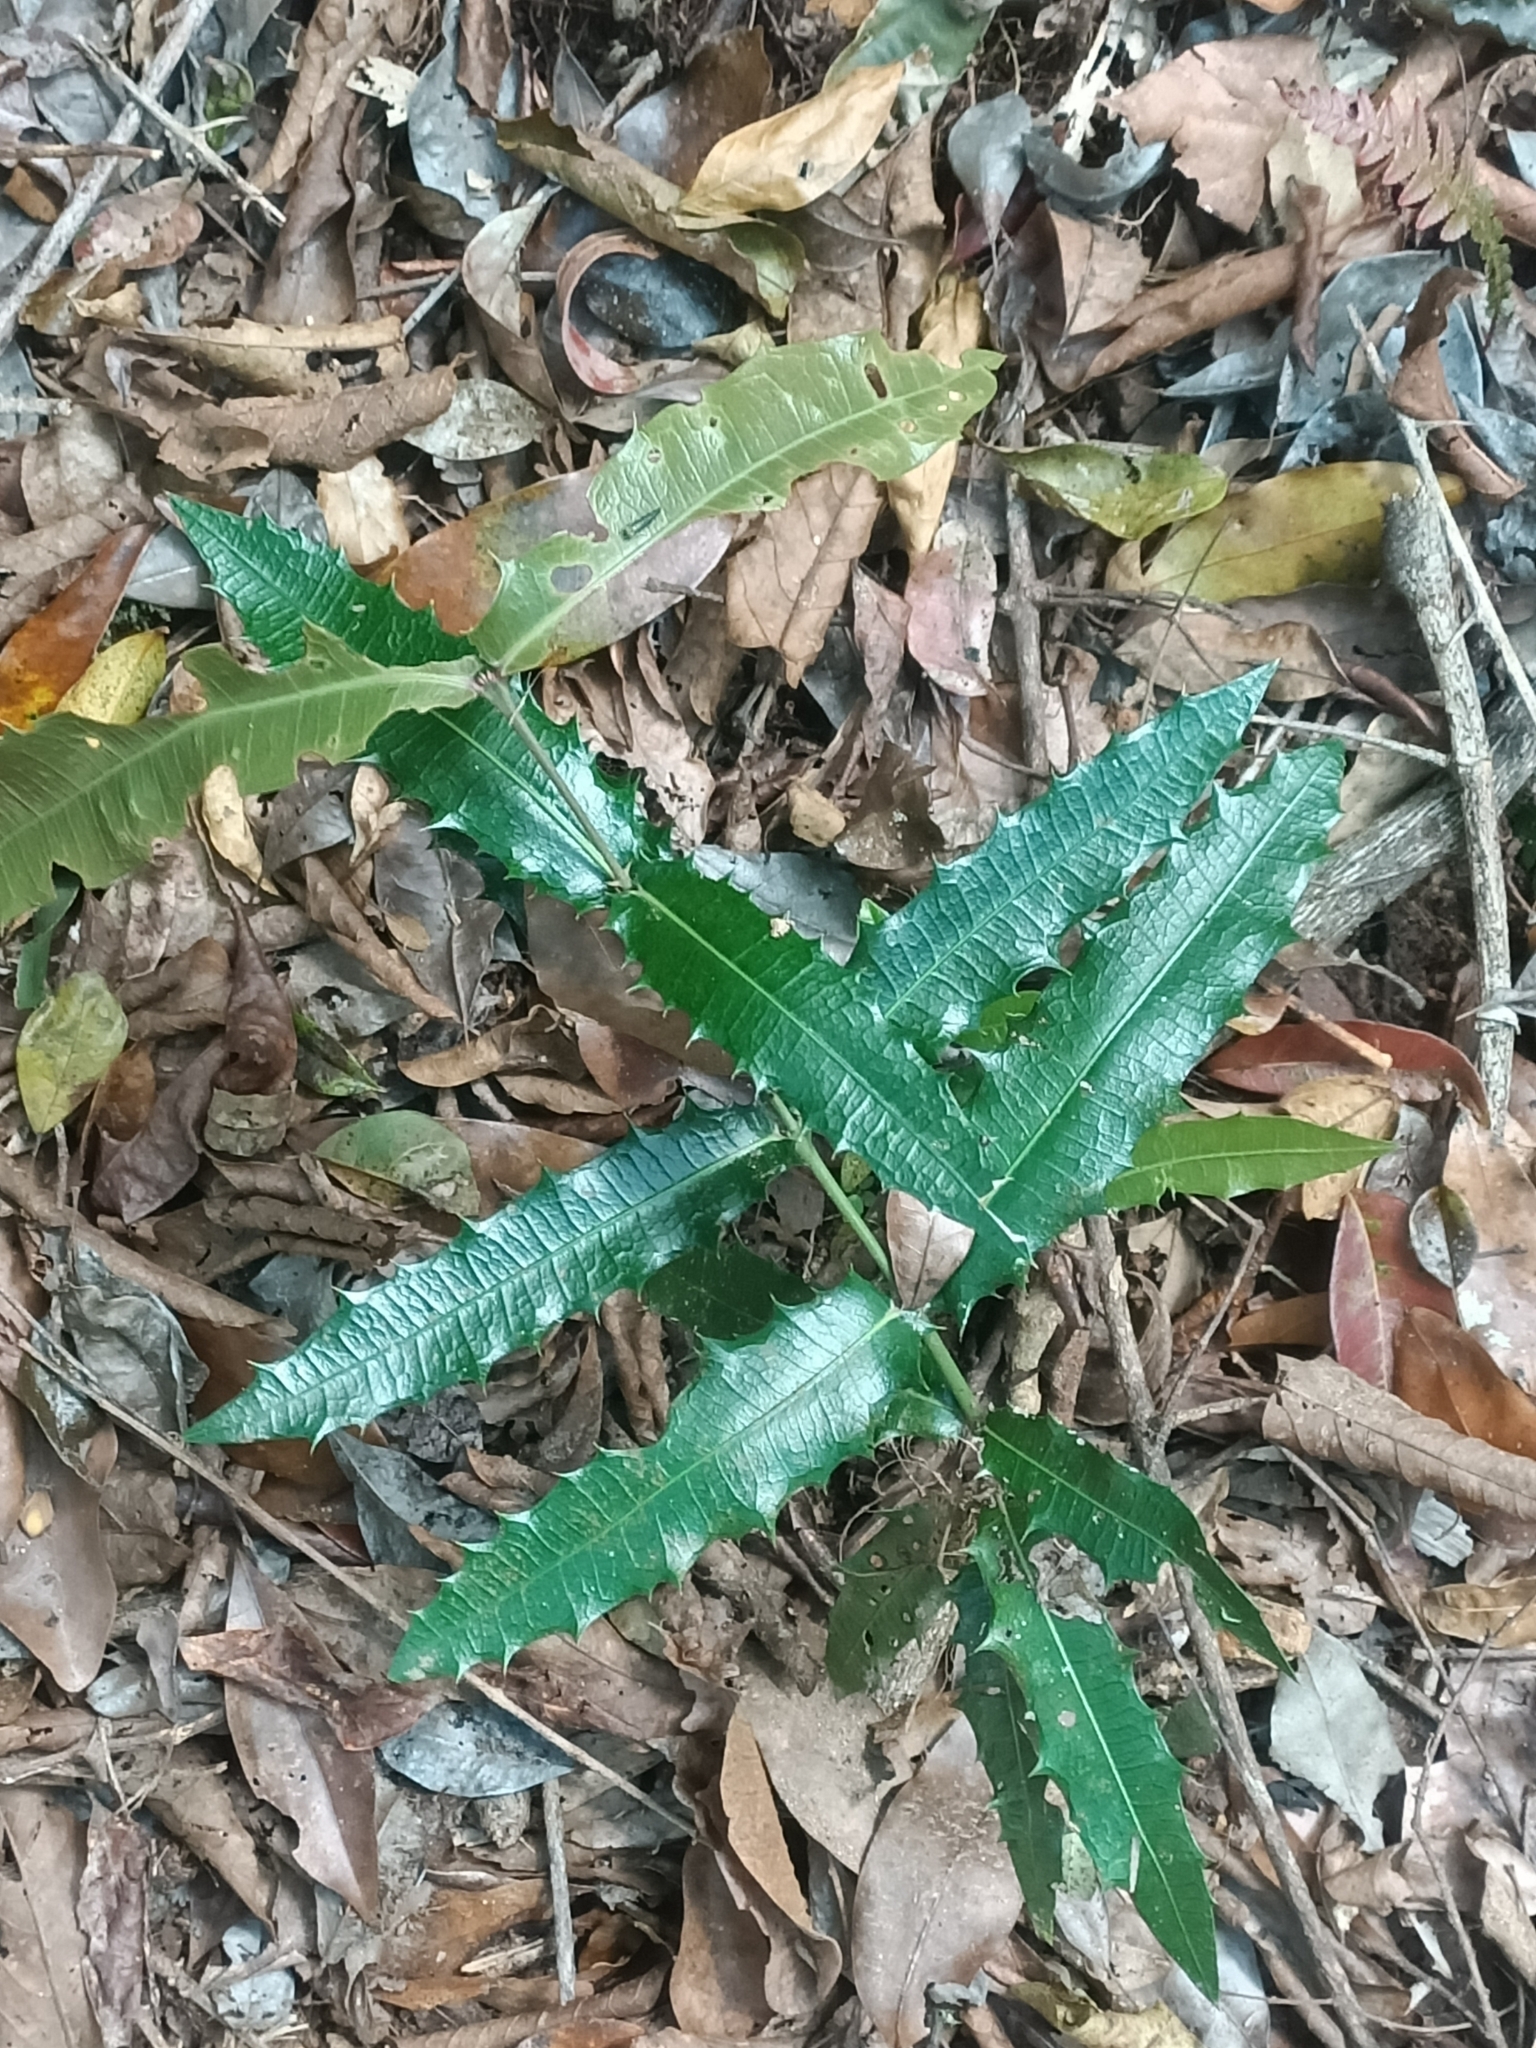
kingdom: Plantae
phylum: Tracheophyta
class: Magnoliopsida
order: Laurales
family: Monimiaceae
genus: Wilkiea
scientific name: Wilkiea macrophylla
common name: Large-leaved wilkiea
